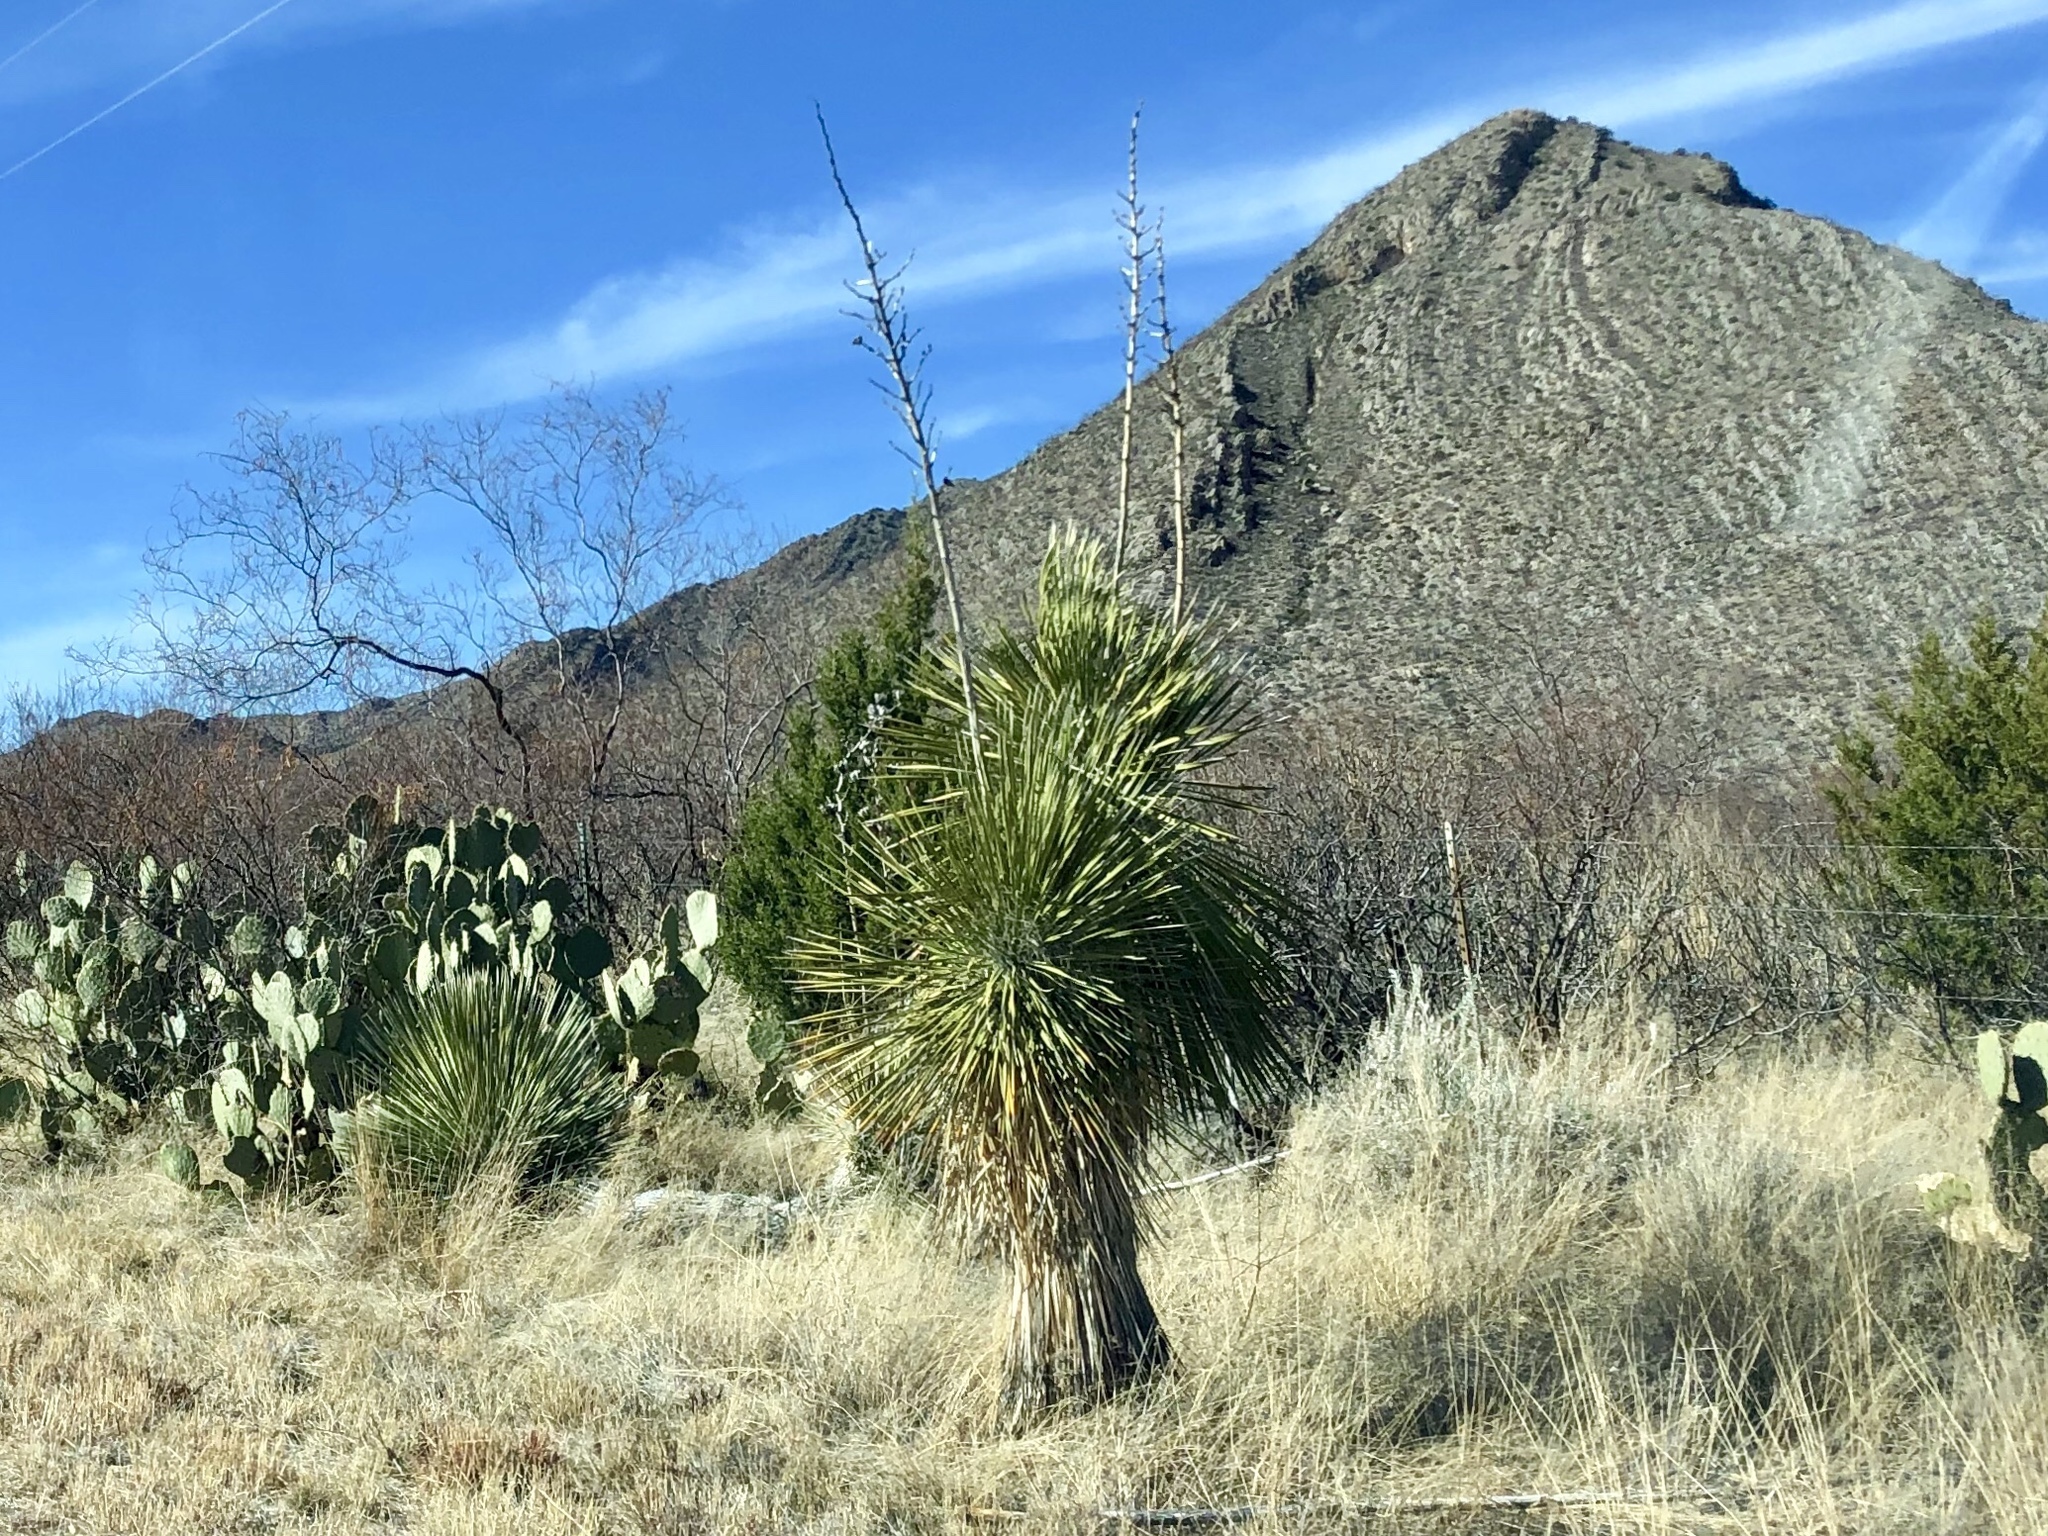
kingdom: Plantae
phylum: Tracheophyta
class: Liliopsida
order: Asparagales
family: Asparagaceae
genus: Yucca
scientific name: Yucca elata
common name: Palmella
